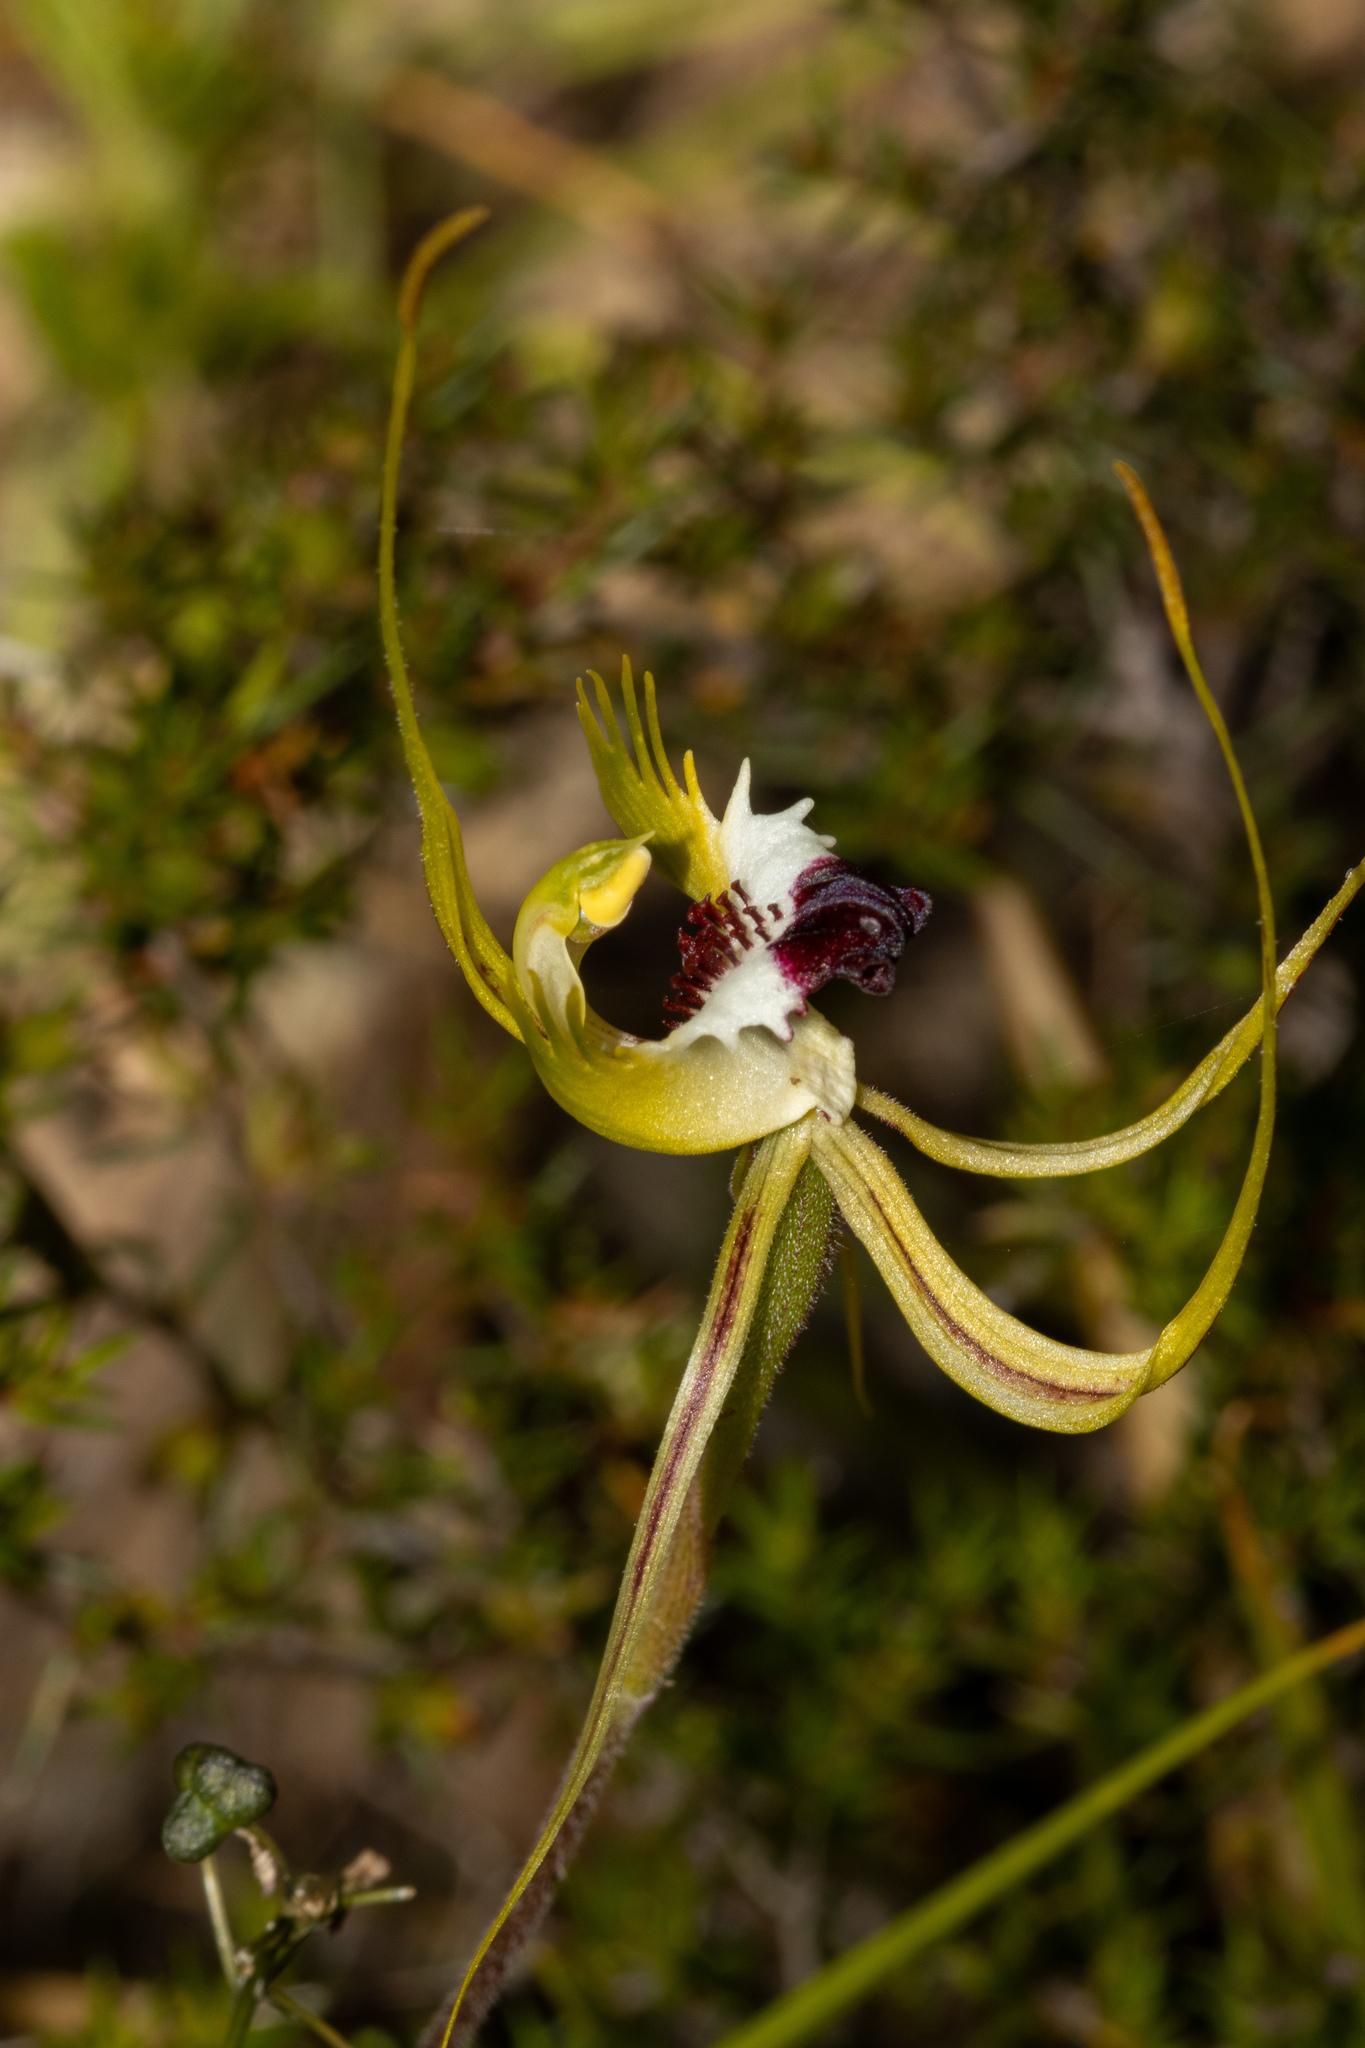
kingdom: Plantae
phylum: Tracheophyta
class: Liliopsida
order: Asparagales
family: Orchidaceae
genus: Caladenia
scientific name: Caladenia tentaculata
